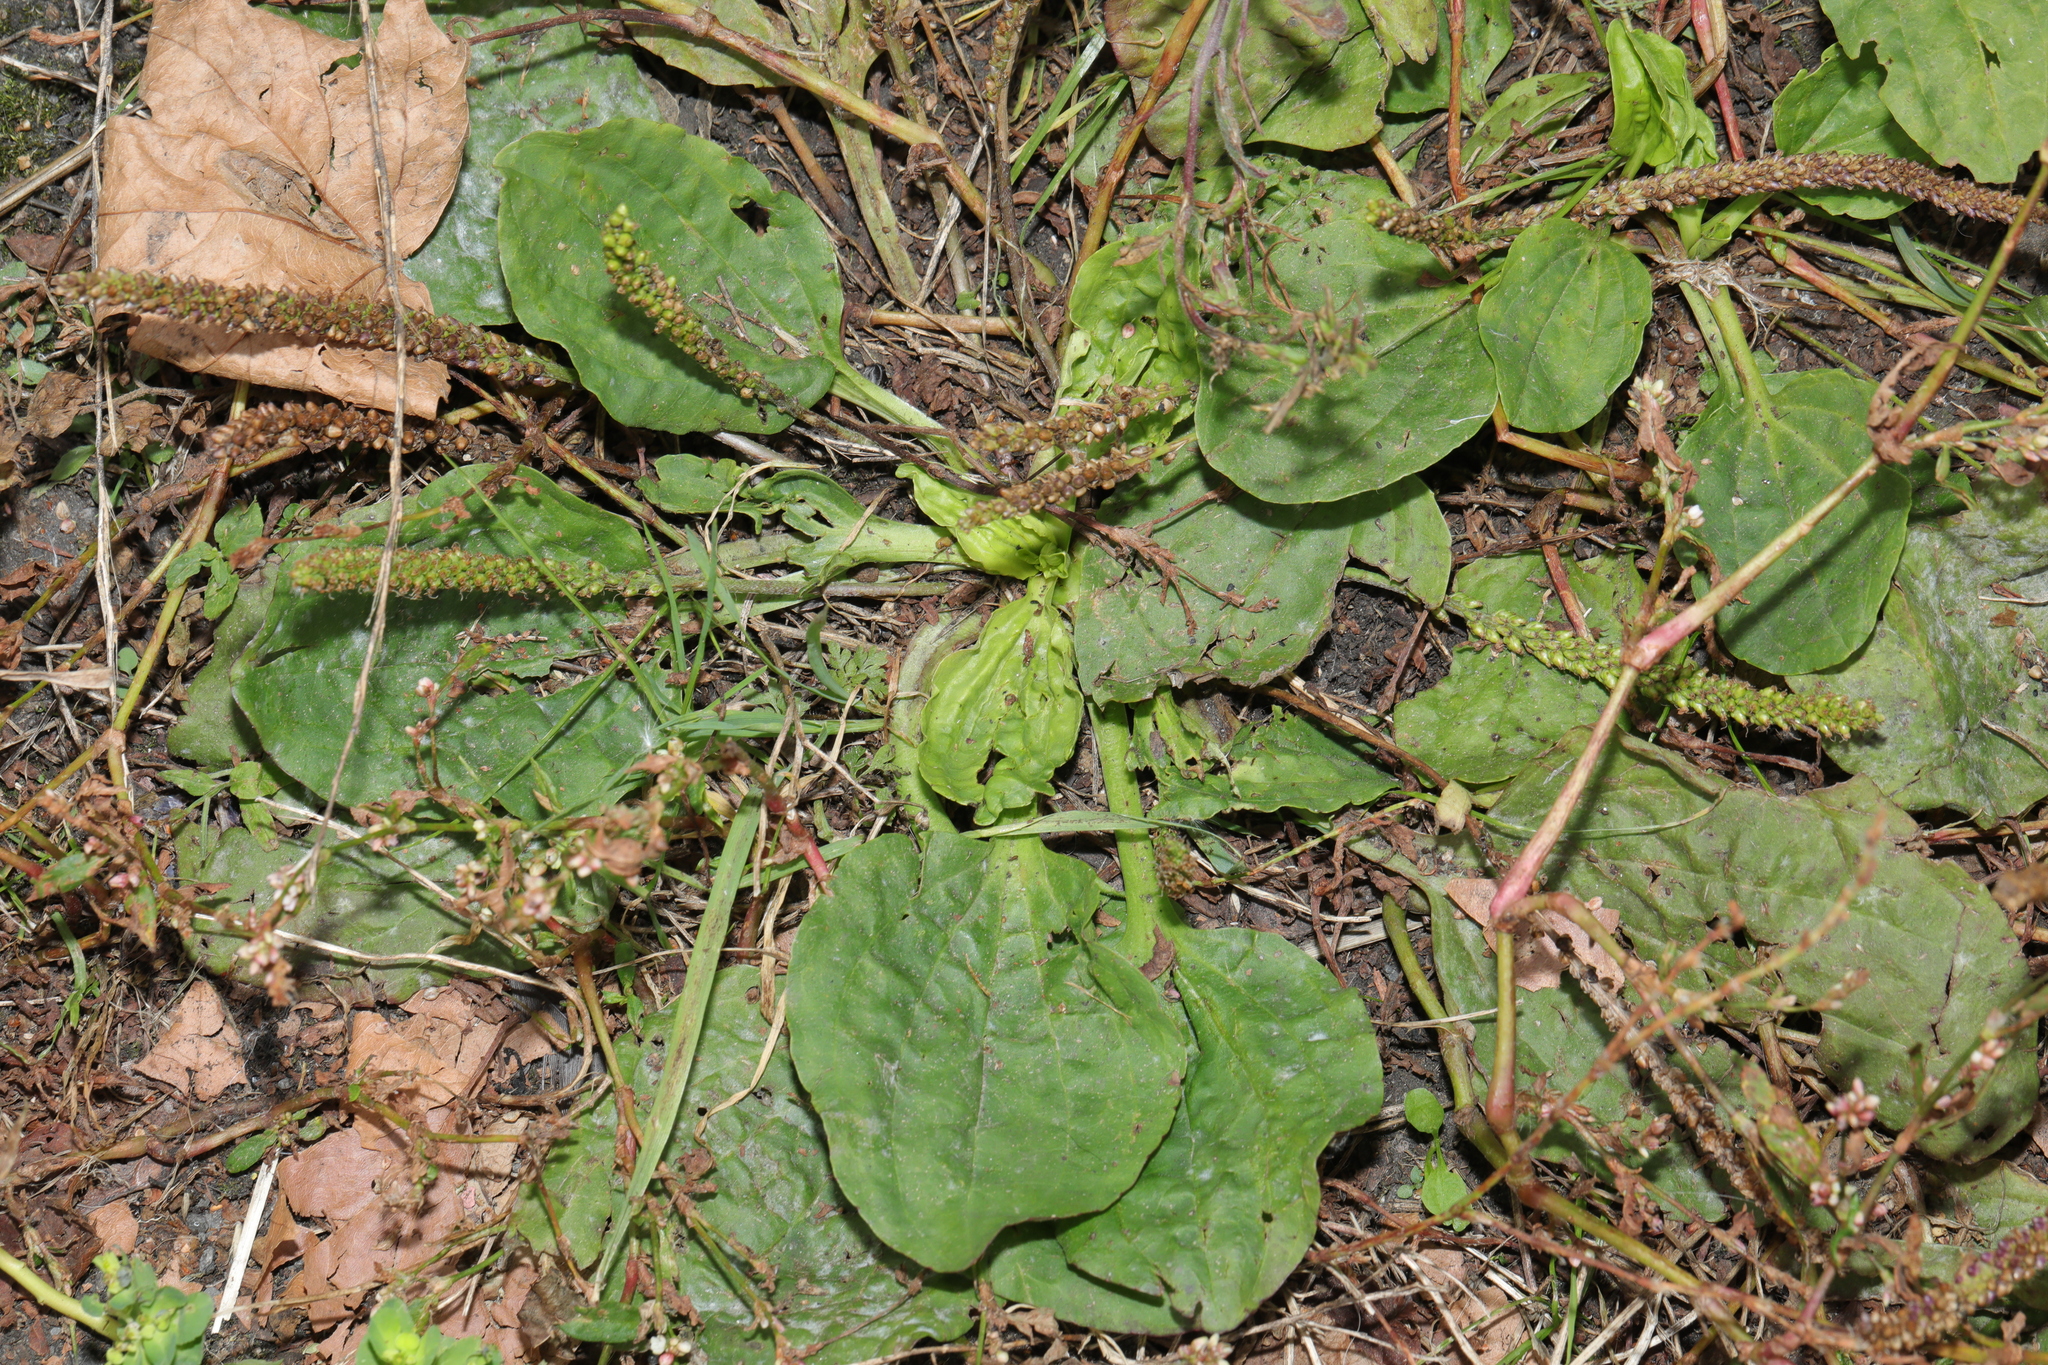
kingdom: Plantae
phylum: Tracheophyta
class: Magnoliopsida
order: Lamiales
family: Plantaginaceae
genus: Plantago
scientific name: Plantago major
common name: Common plantain
